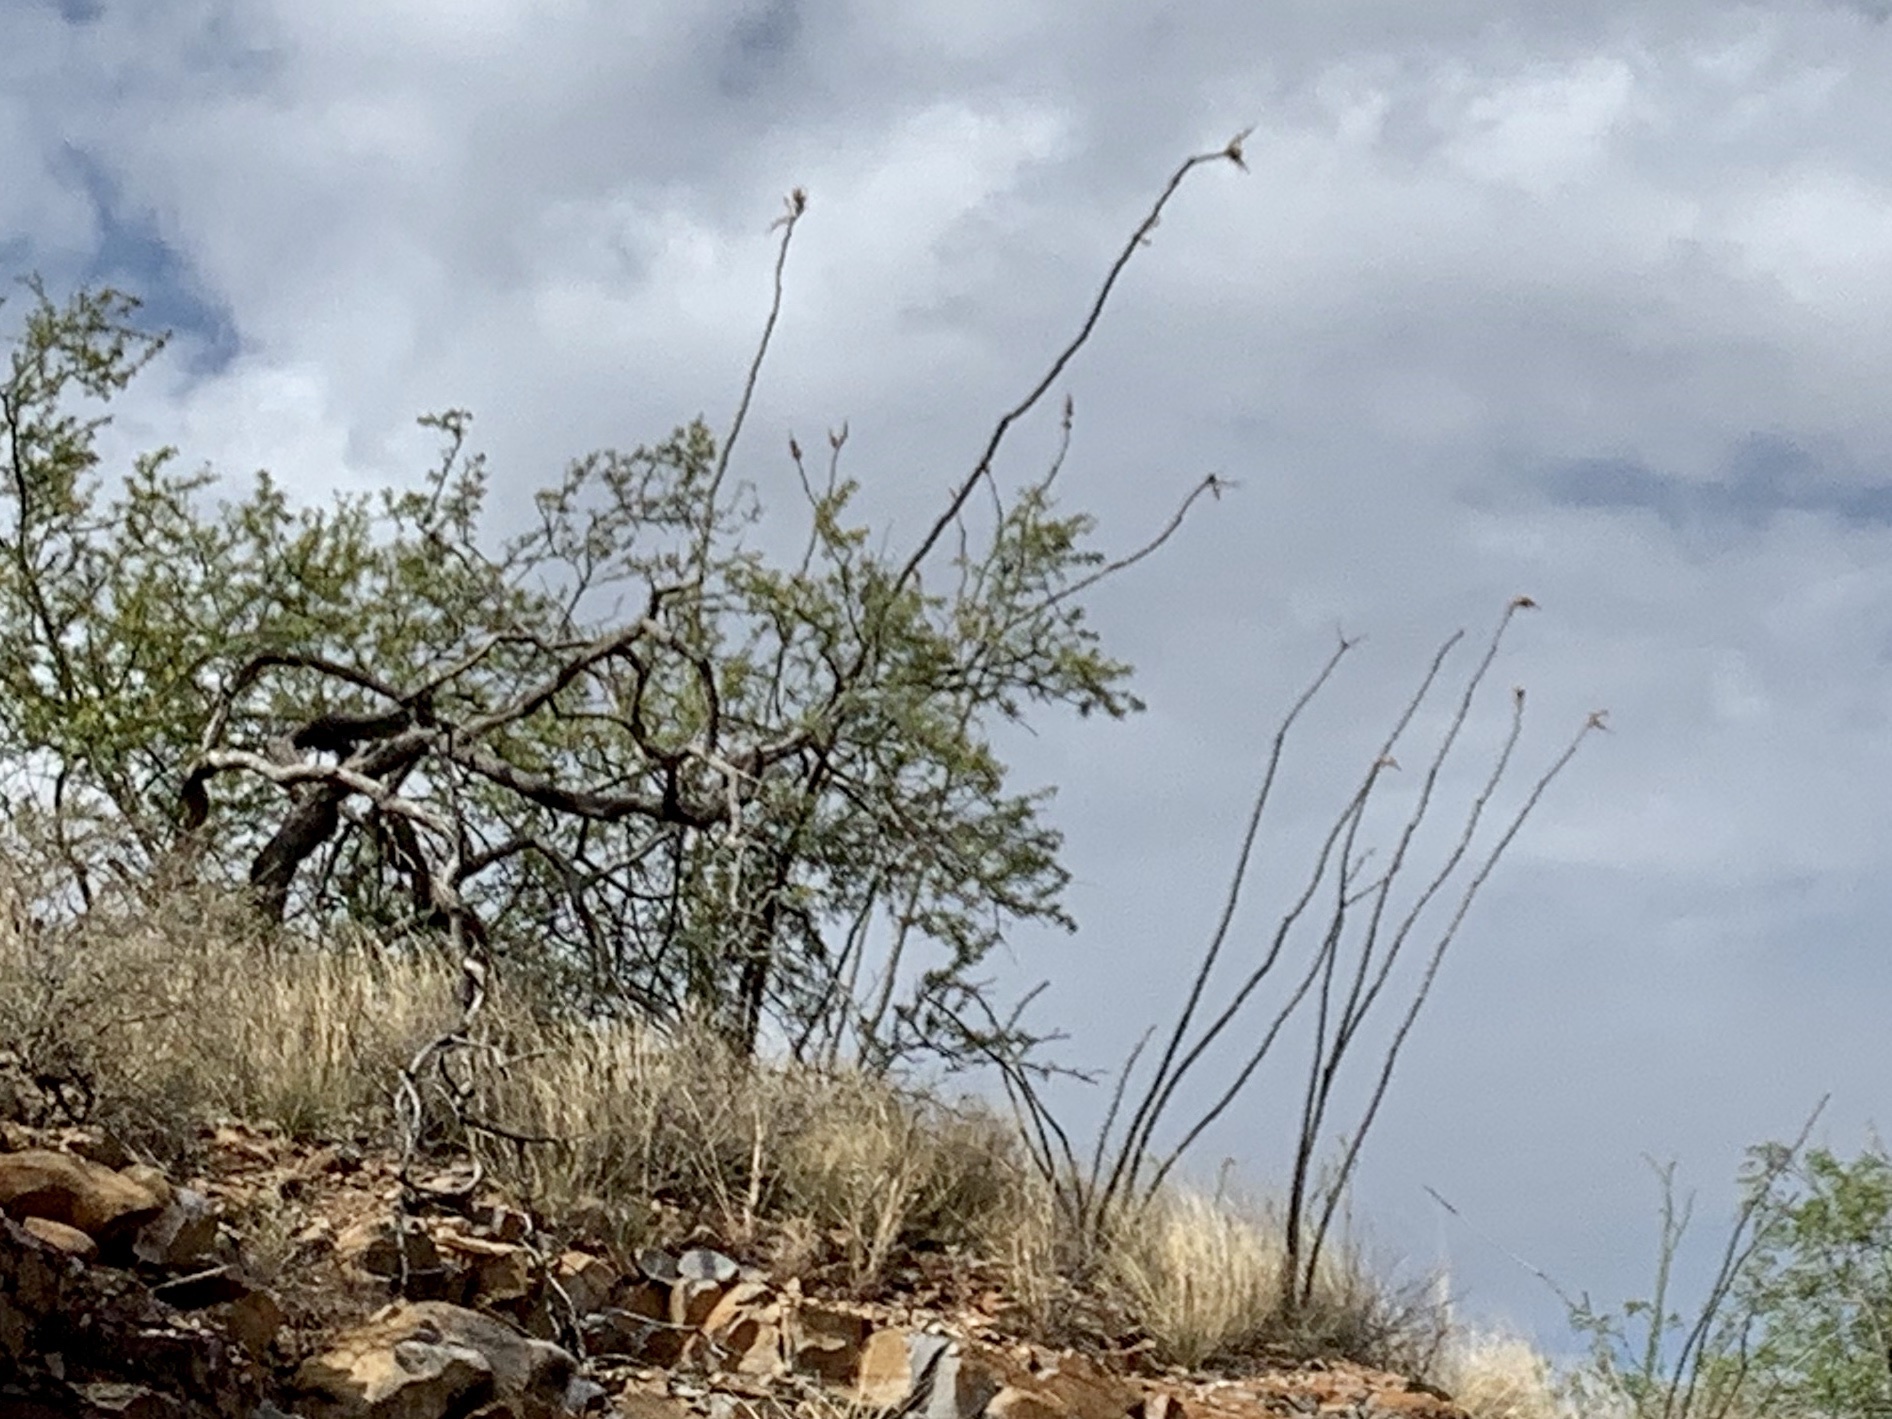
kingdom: Plantae
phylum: Tracheophyta
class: Magnoliopsida
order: Ericales
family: Fouquieriaceae
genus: Fouquieria
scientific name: Fouquieria splendens
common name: Vine-cactus
